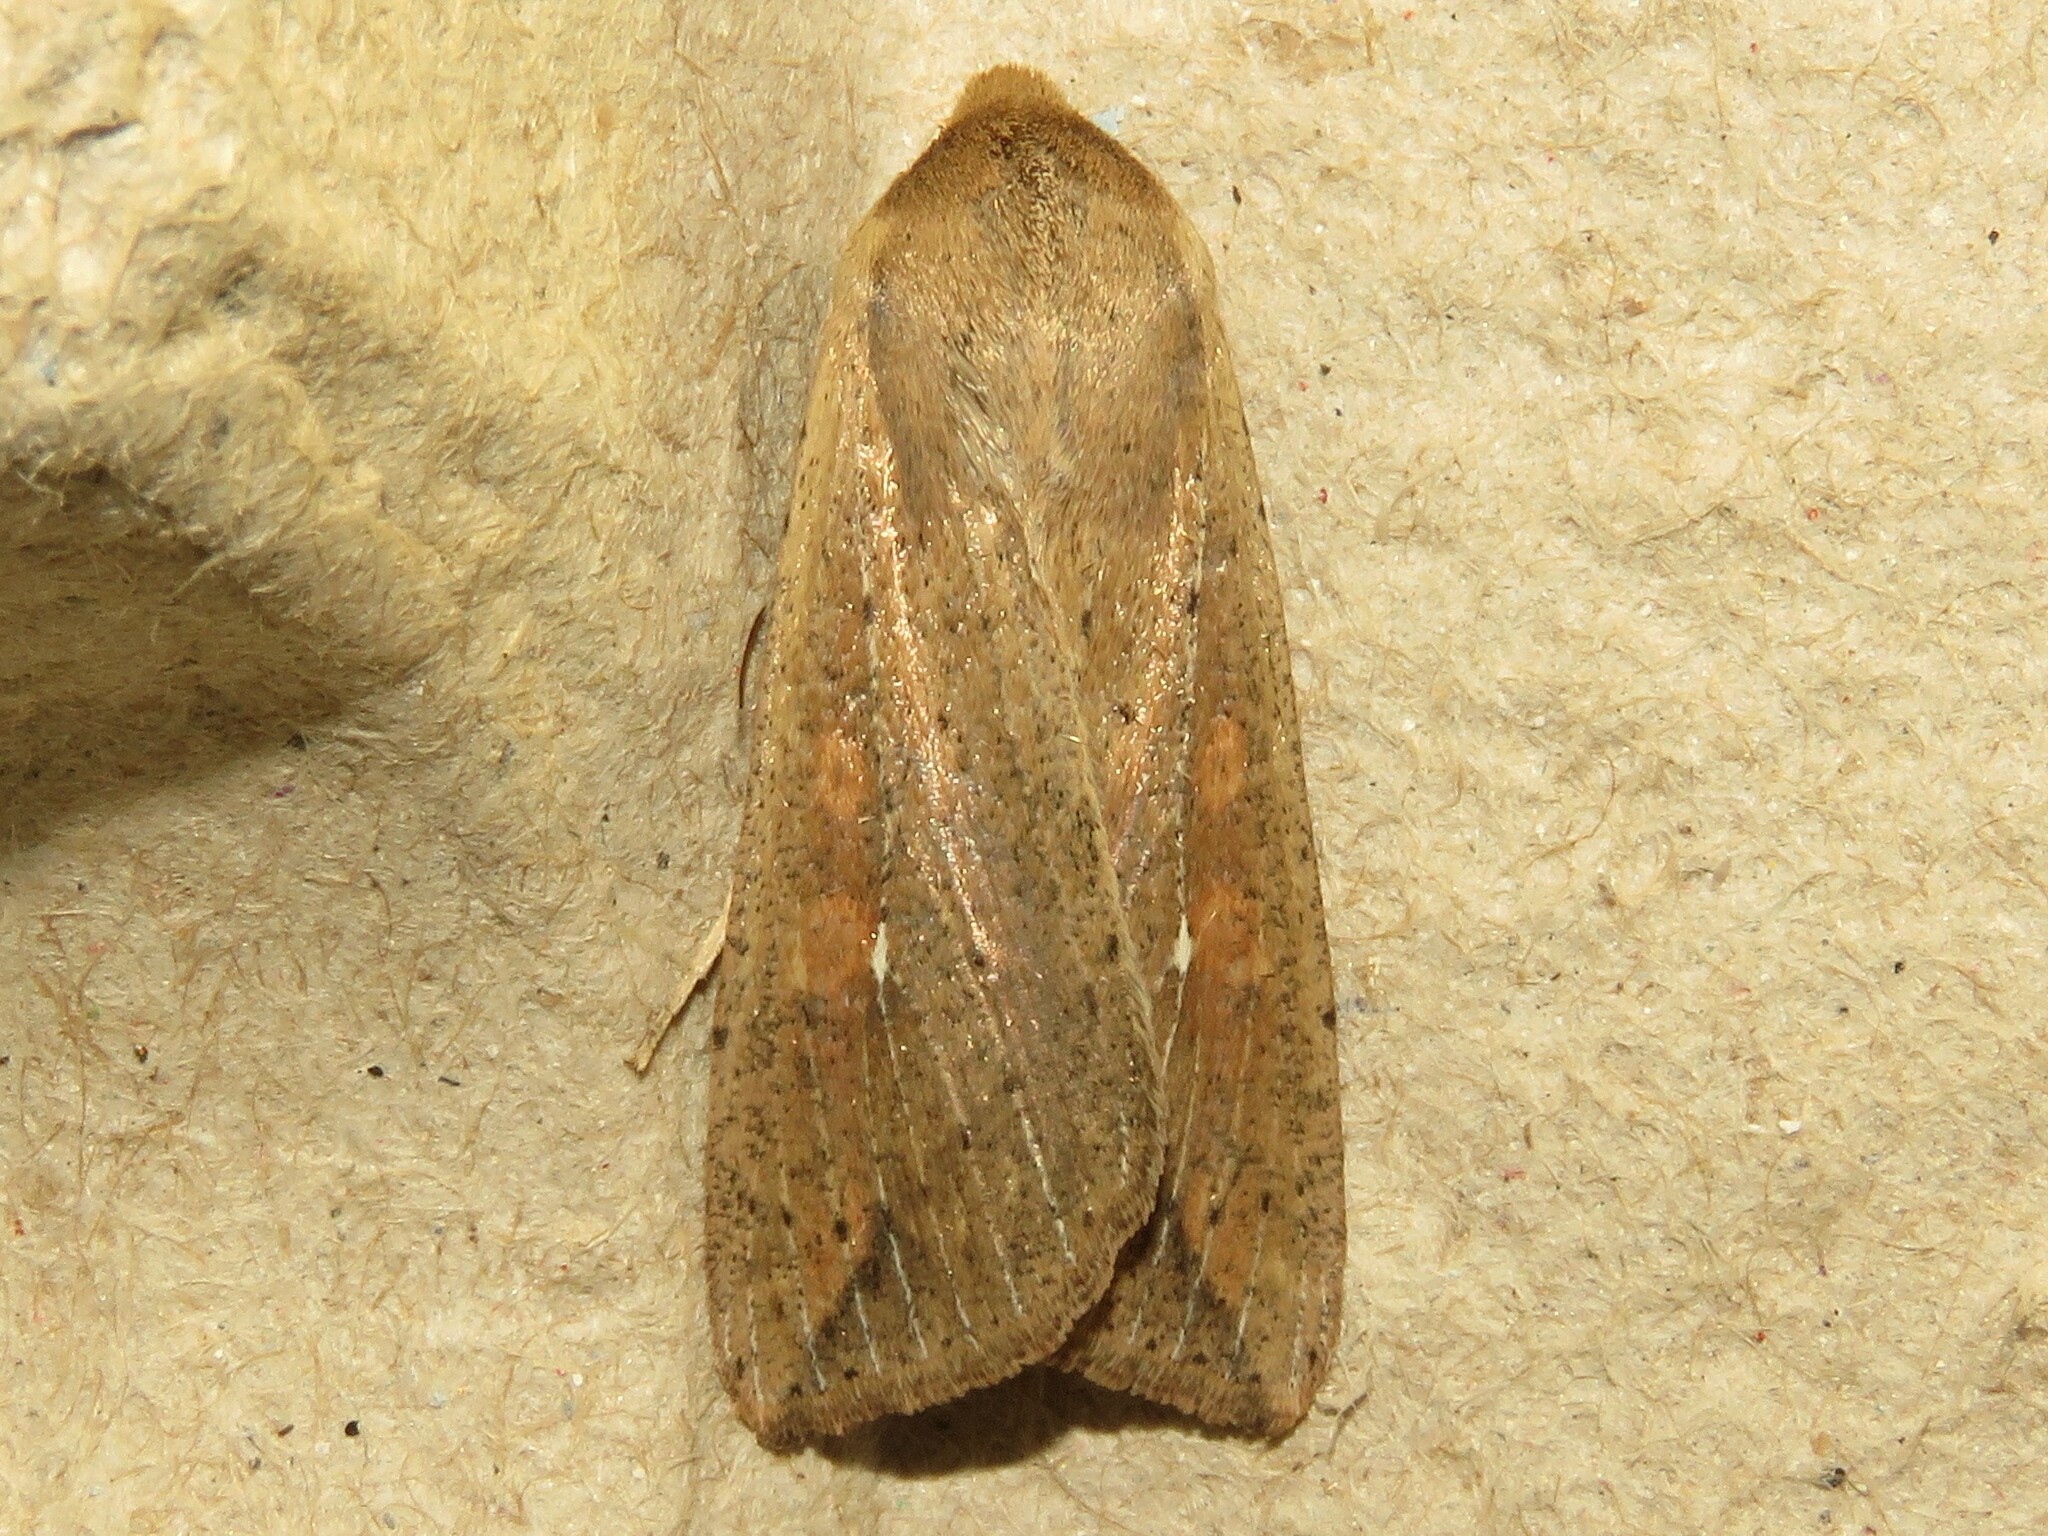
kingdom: Animalia
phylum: Arthropoda
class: Insecta
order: Lepidoptera
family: Noctuidae
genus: Mythimna
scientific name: Mythimna unipuncta
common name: White-speck
